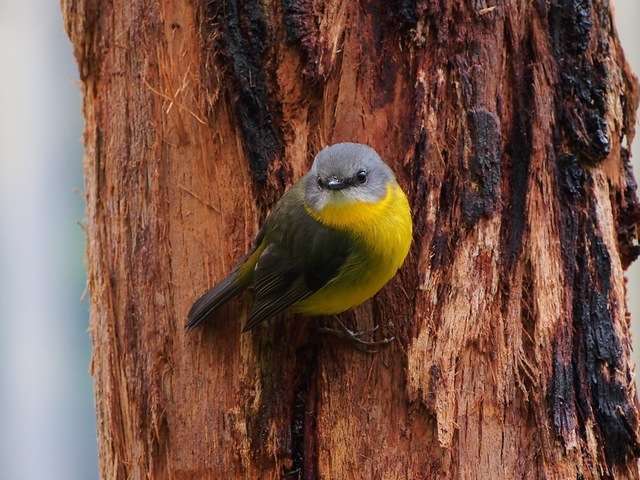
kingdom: Animalia
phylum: Chordata
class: Aves
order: Passeriformes
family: Petroicidae
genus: Eopsaltria
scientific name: Eopsaltria australis
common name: Eastern yellow robin
